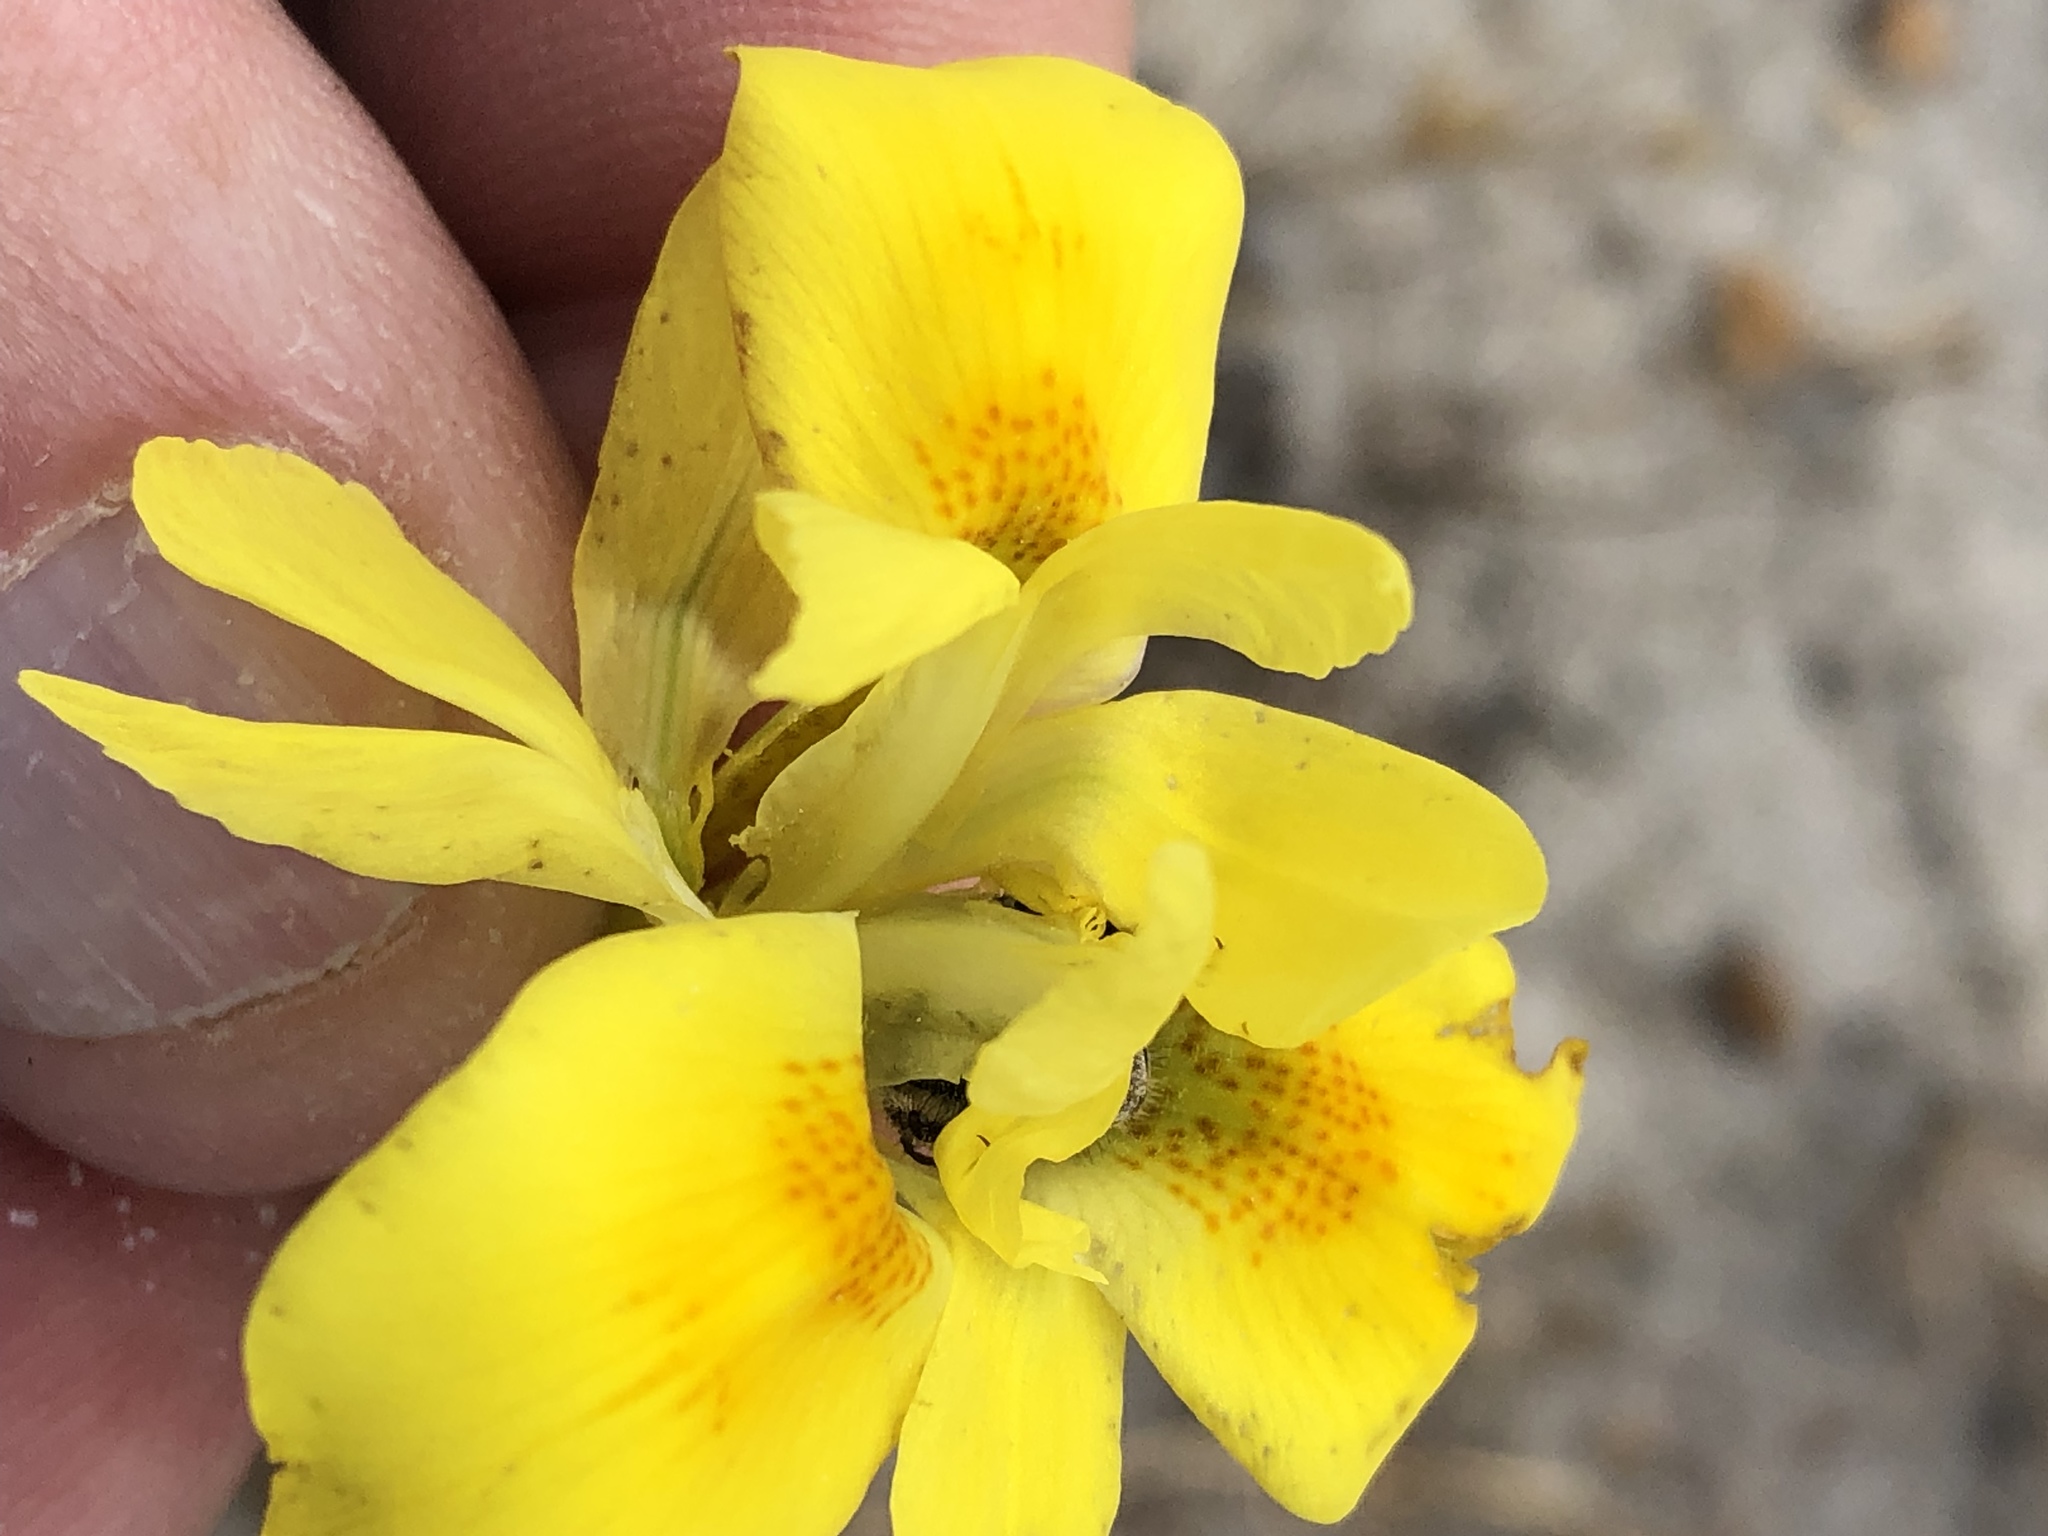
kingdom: Plantae
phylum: Tracheophyta
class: Liliopsida
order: Asparagales
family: Iridaceae
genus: Moraea
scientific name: Moraea neglecta
